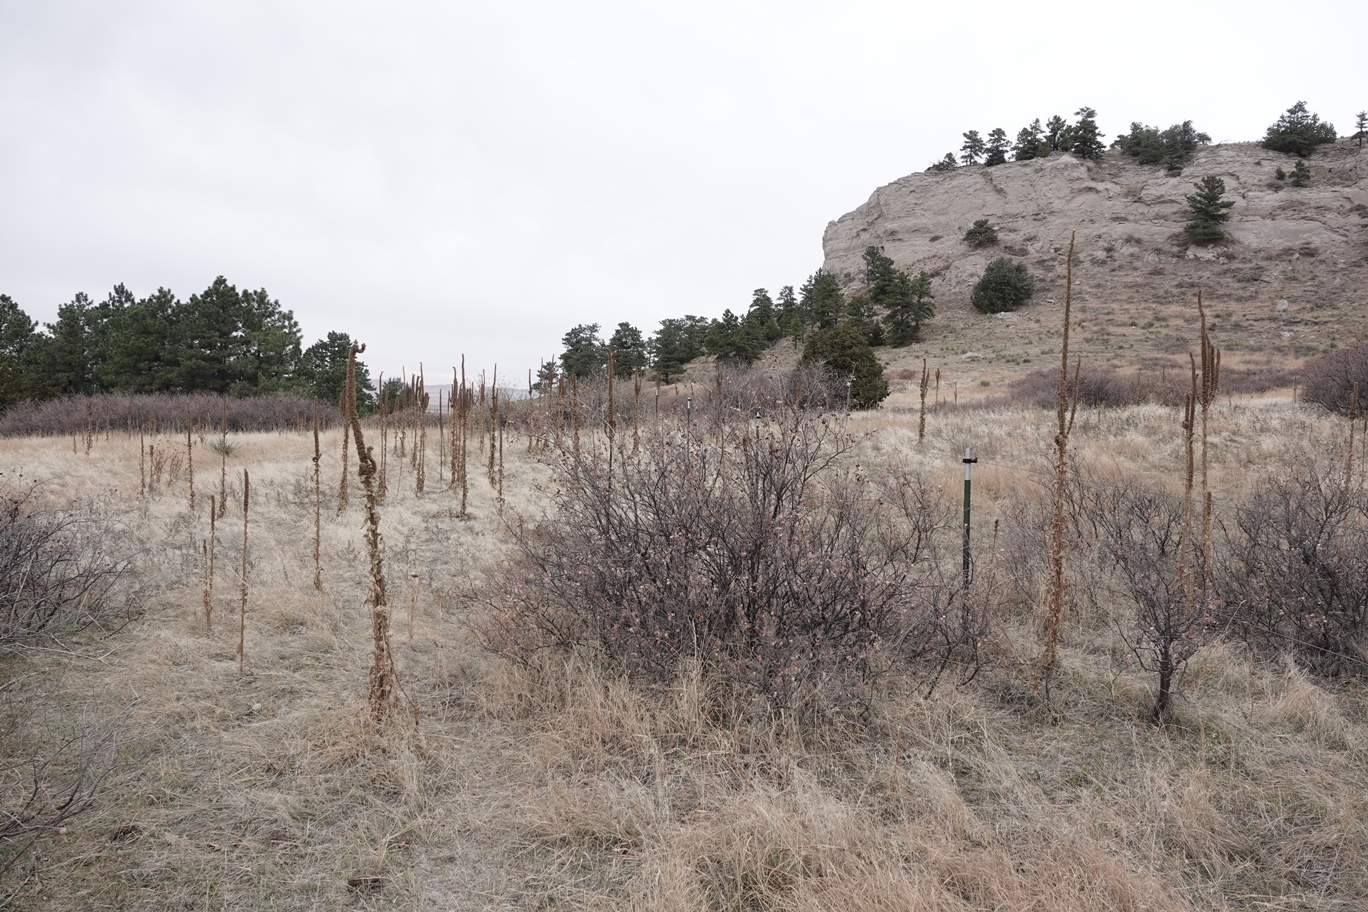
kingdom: Plantae
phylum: Tracheophyta
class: Magnoliopsida
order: Lamiales
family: Scrophulariaceae
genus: Verbascum
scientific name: Verbascum thapsus
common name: Common mullein
